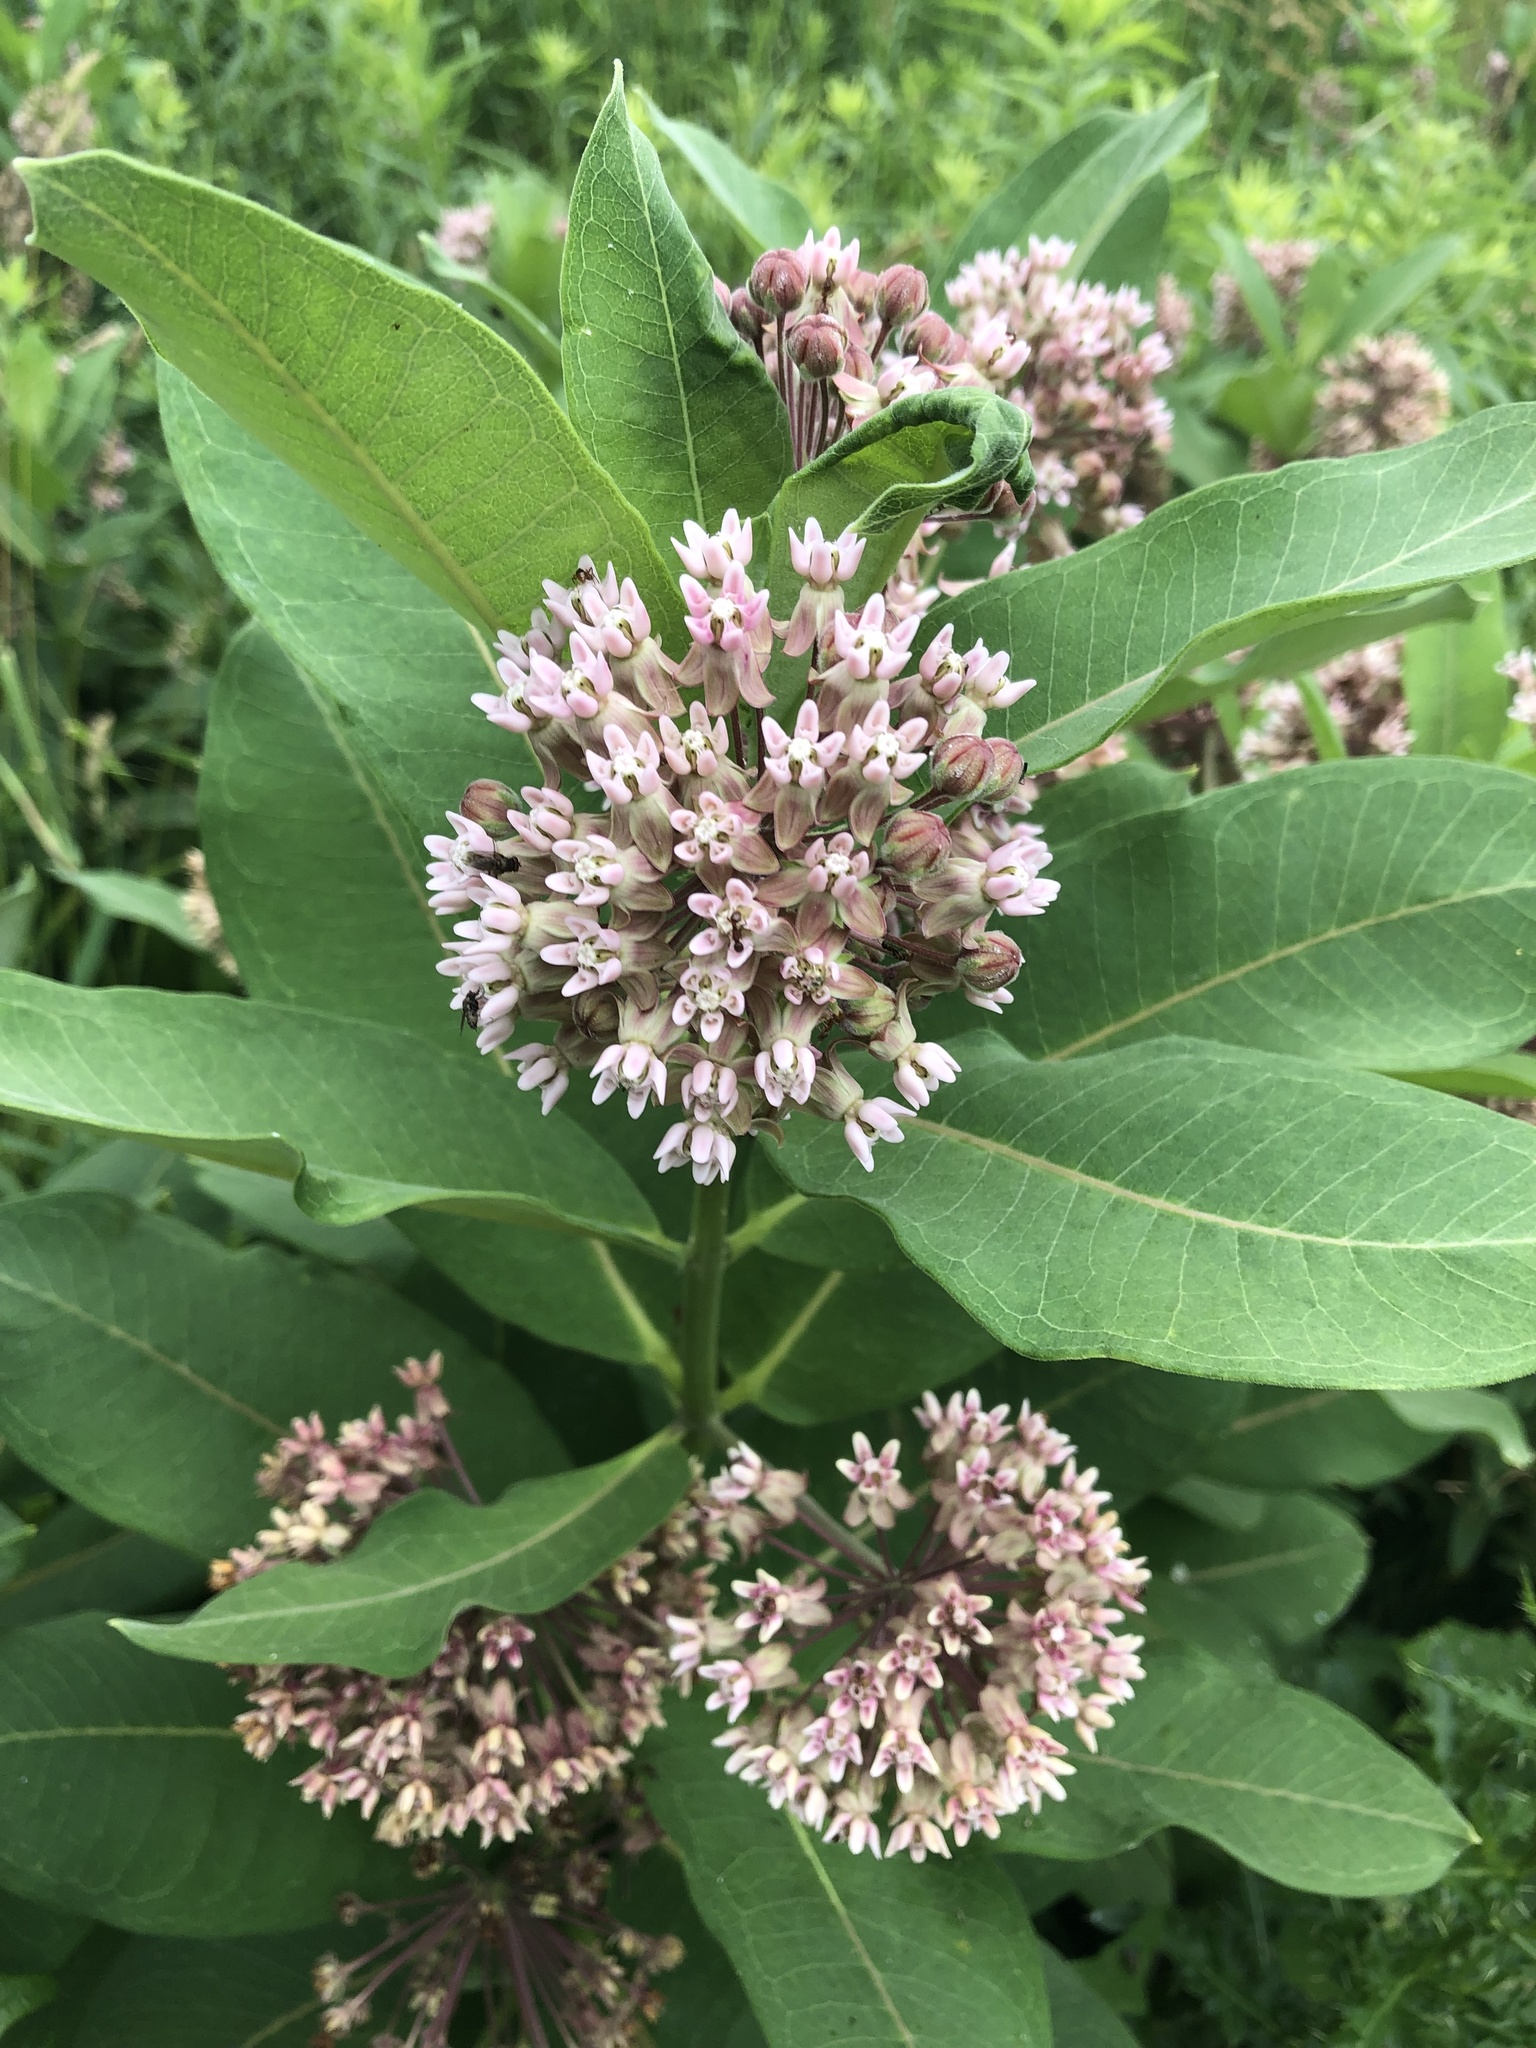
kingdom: Plantae
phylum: Tracheophyta
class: Magnoliopsida
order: Gentianales
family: Apocynaceae
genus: Asclepias
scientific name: Asclepias syriaca
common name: Common milkweed
